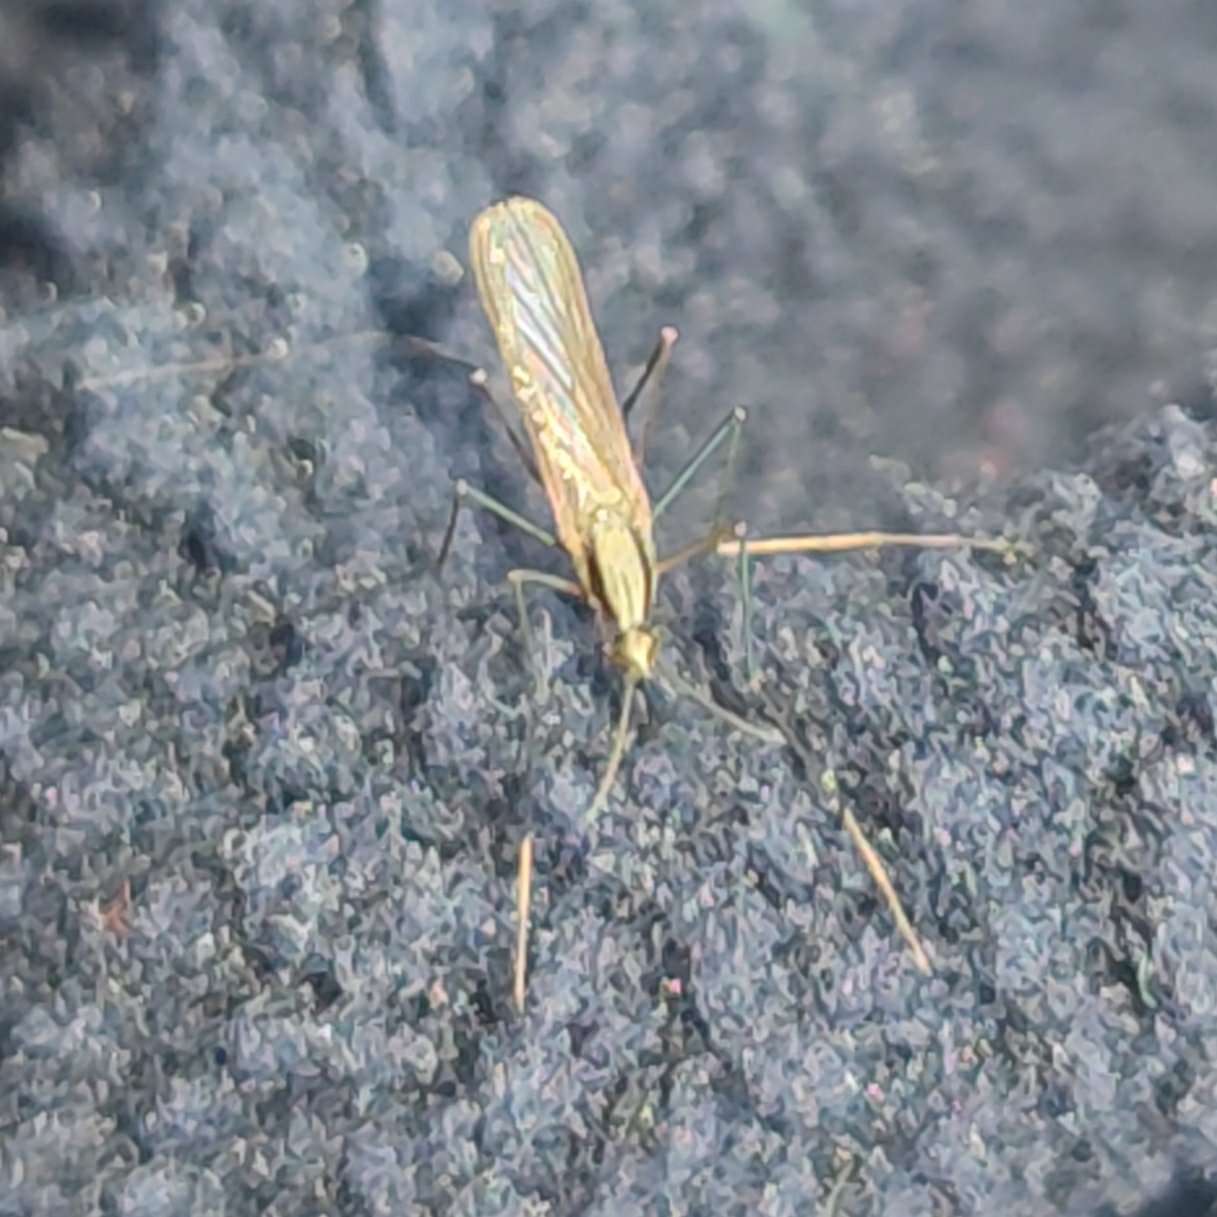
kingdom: Animalia
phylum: Arthropoda
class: Insecta
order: Diptera
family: Culicidae
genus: Anopheles
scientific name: Anopheles plumbeus
